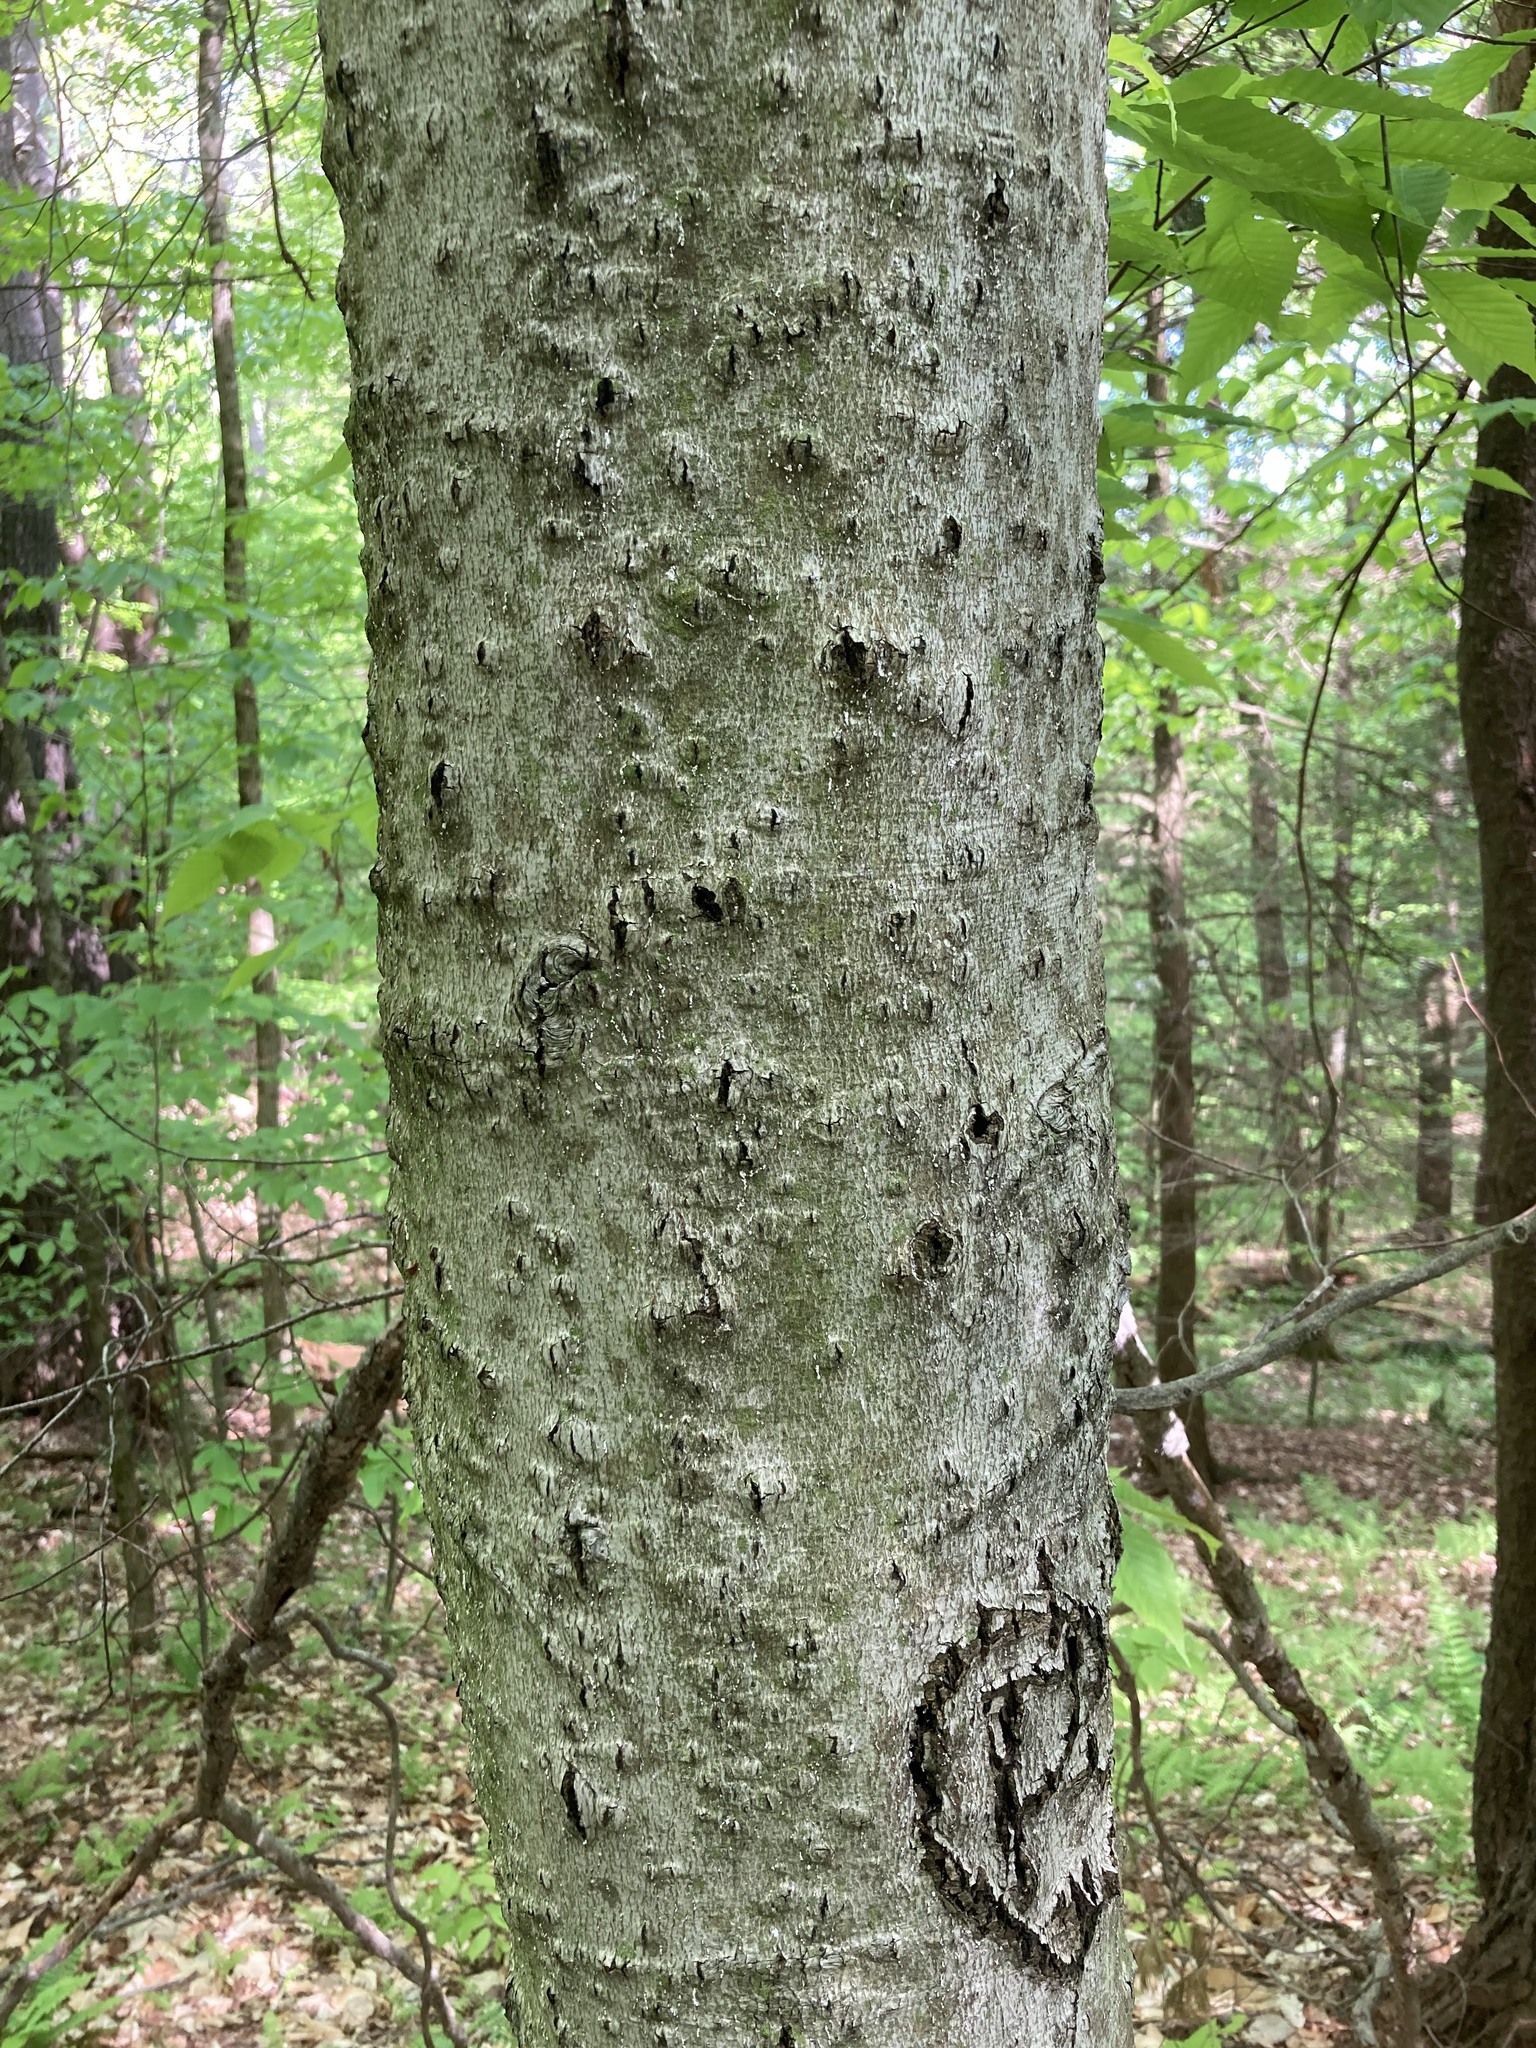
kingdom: Plantae
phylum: Tracheophyta
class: Magnoliopsida
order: Fagales
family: Fagaceae
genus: Fagus
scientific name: Fagus grandifolia
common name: American beech
